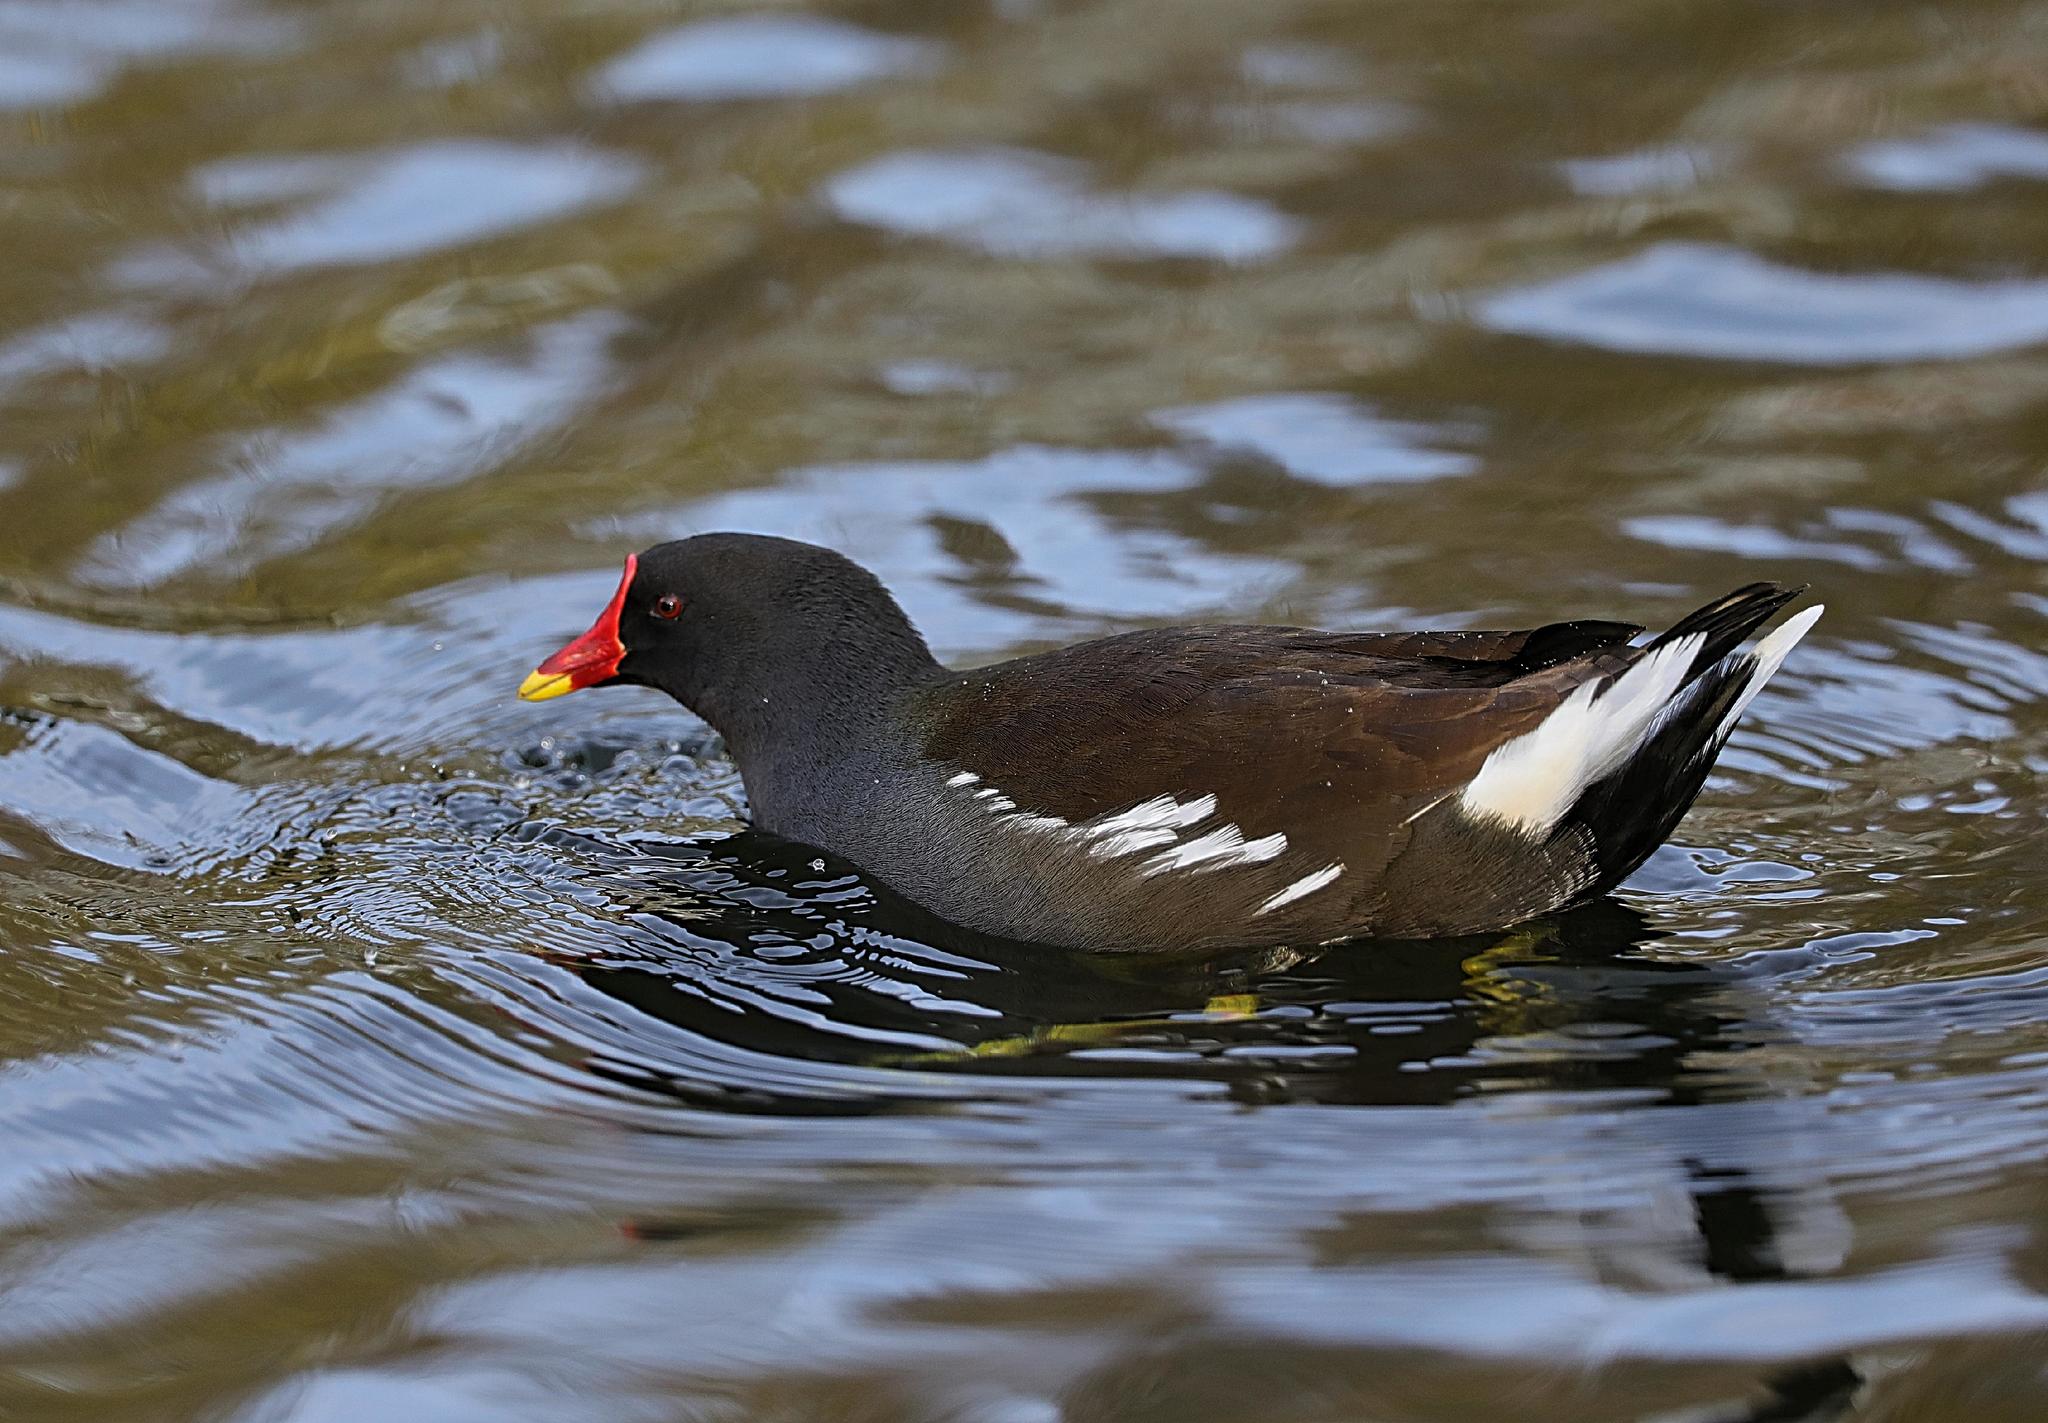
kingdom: Animalia
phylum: Chordata
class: Aves
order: Gruiformes
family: Rallidae
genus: Gallinula
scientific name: Gallinula chloropus
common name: Common moorhen
